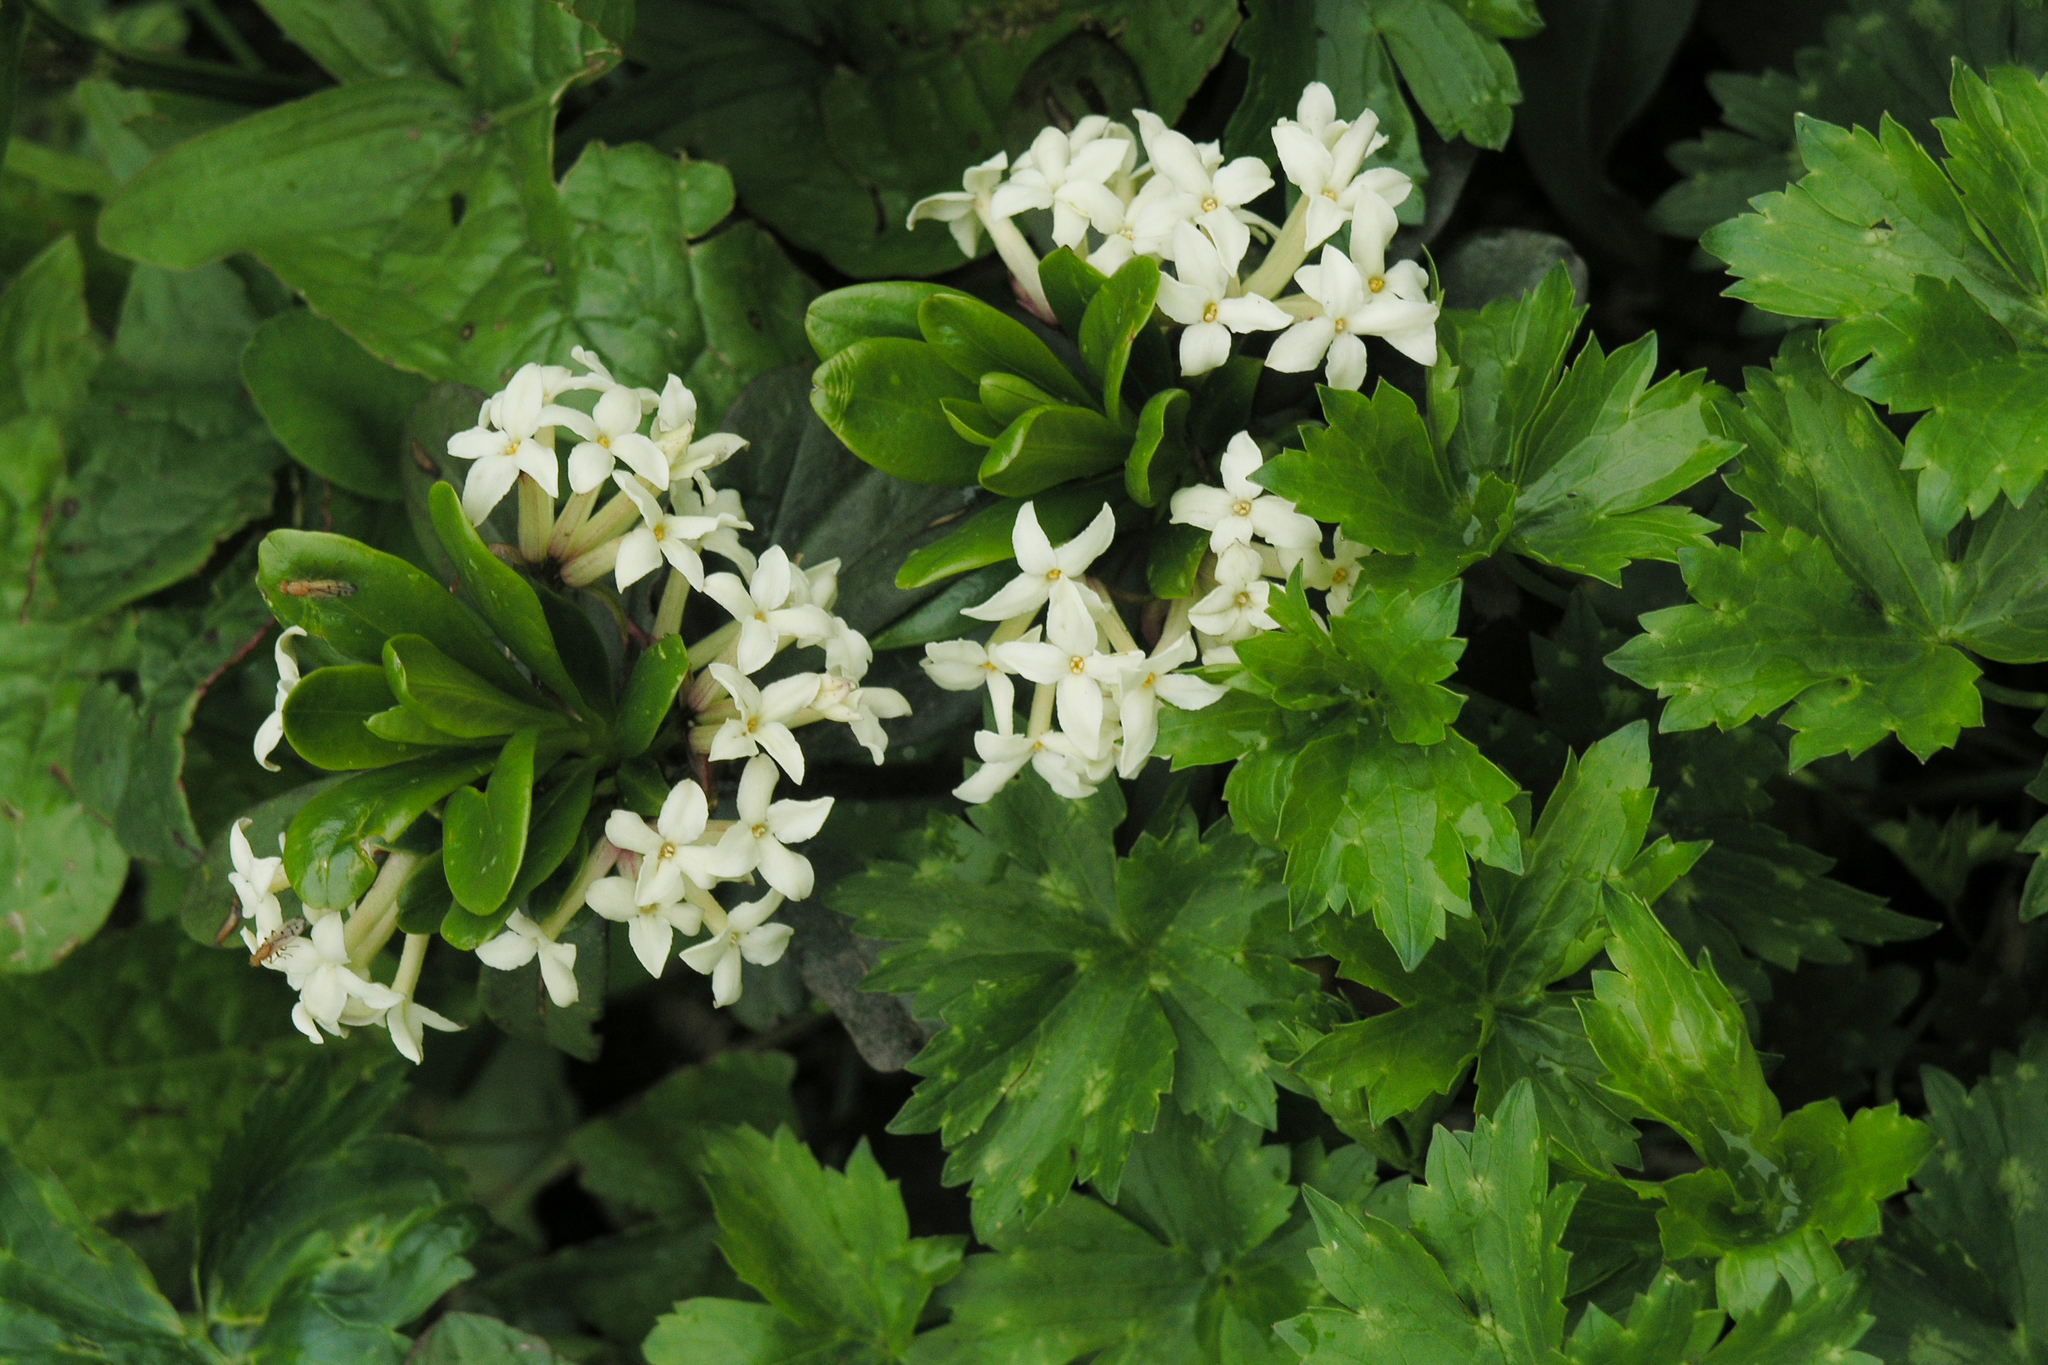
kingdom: Plantae
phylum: Tracheophyta
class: Magnoliopsida
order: Malvales
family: Thymelaeaceae
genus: Daphne
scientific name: Daphne glomerata
